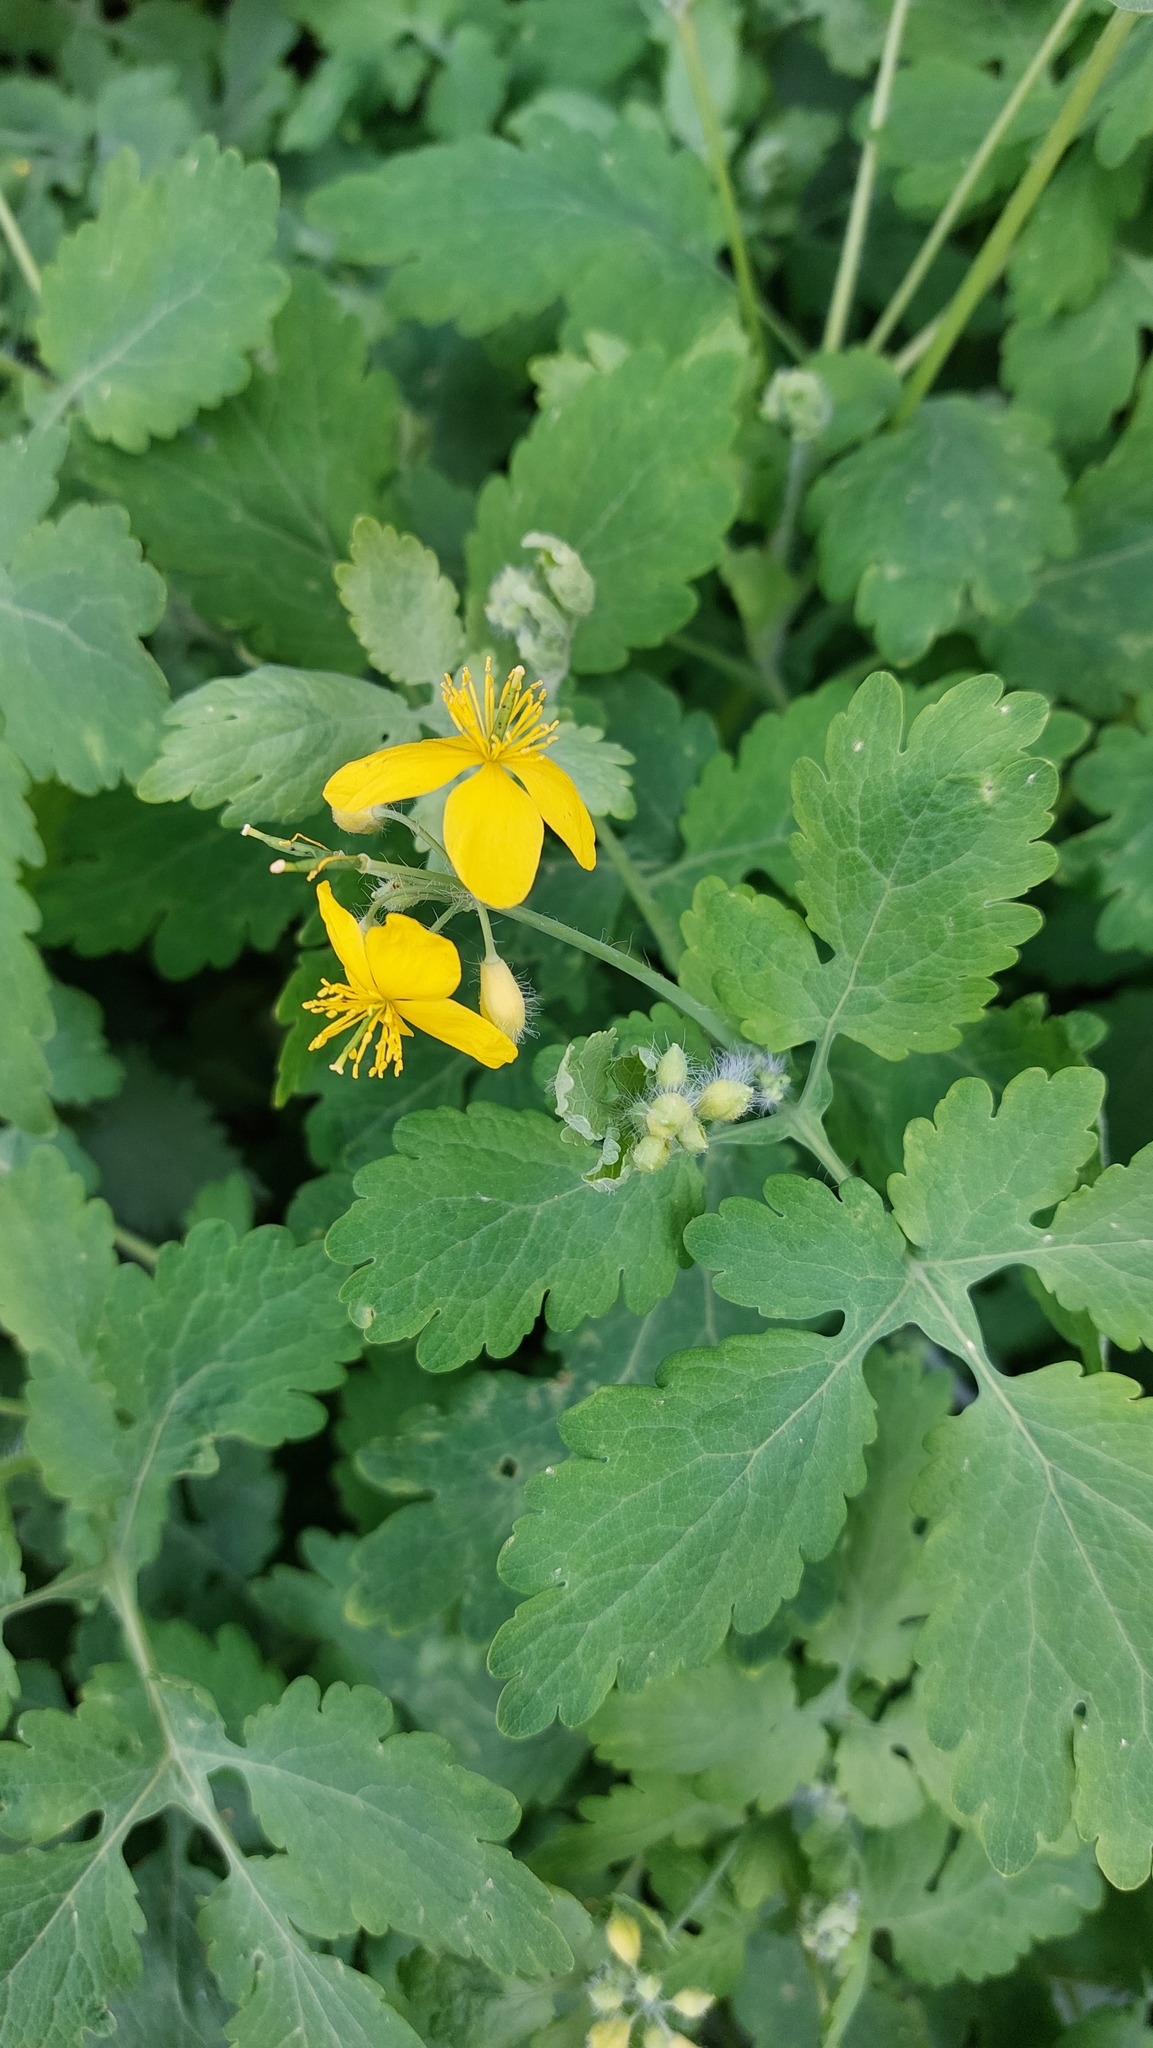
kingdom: Plantae
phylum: Tracheophyta
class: Magnoliopsida
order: Ranunculales
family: Papaveraceae
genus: Chelidonium
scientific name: Chelidonium majus
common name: Greater celandine
